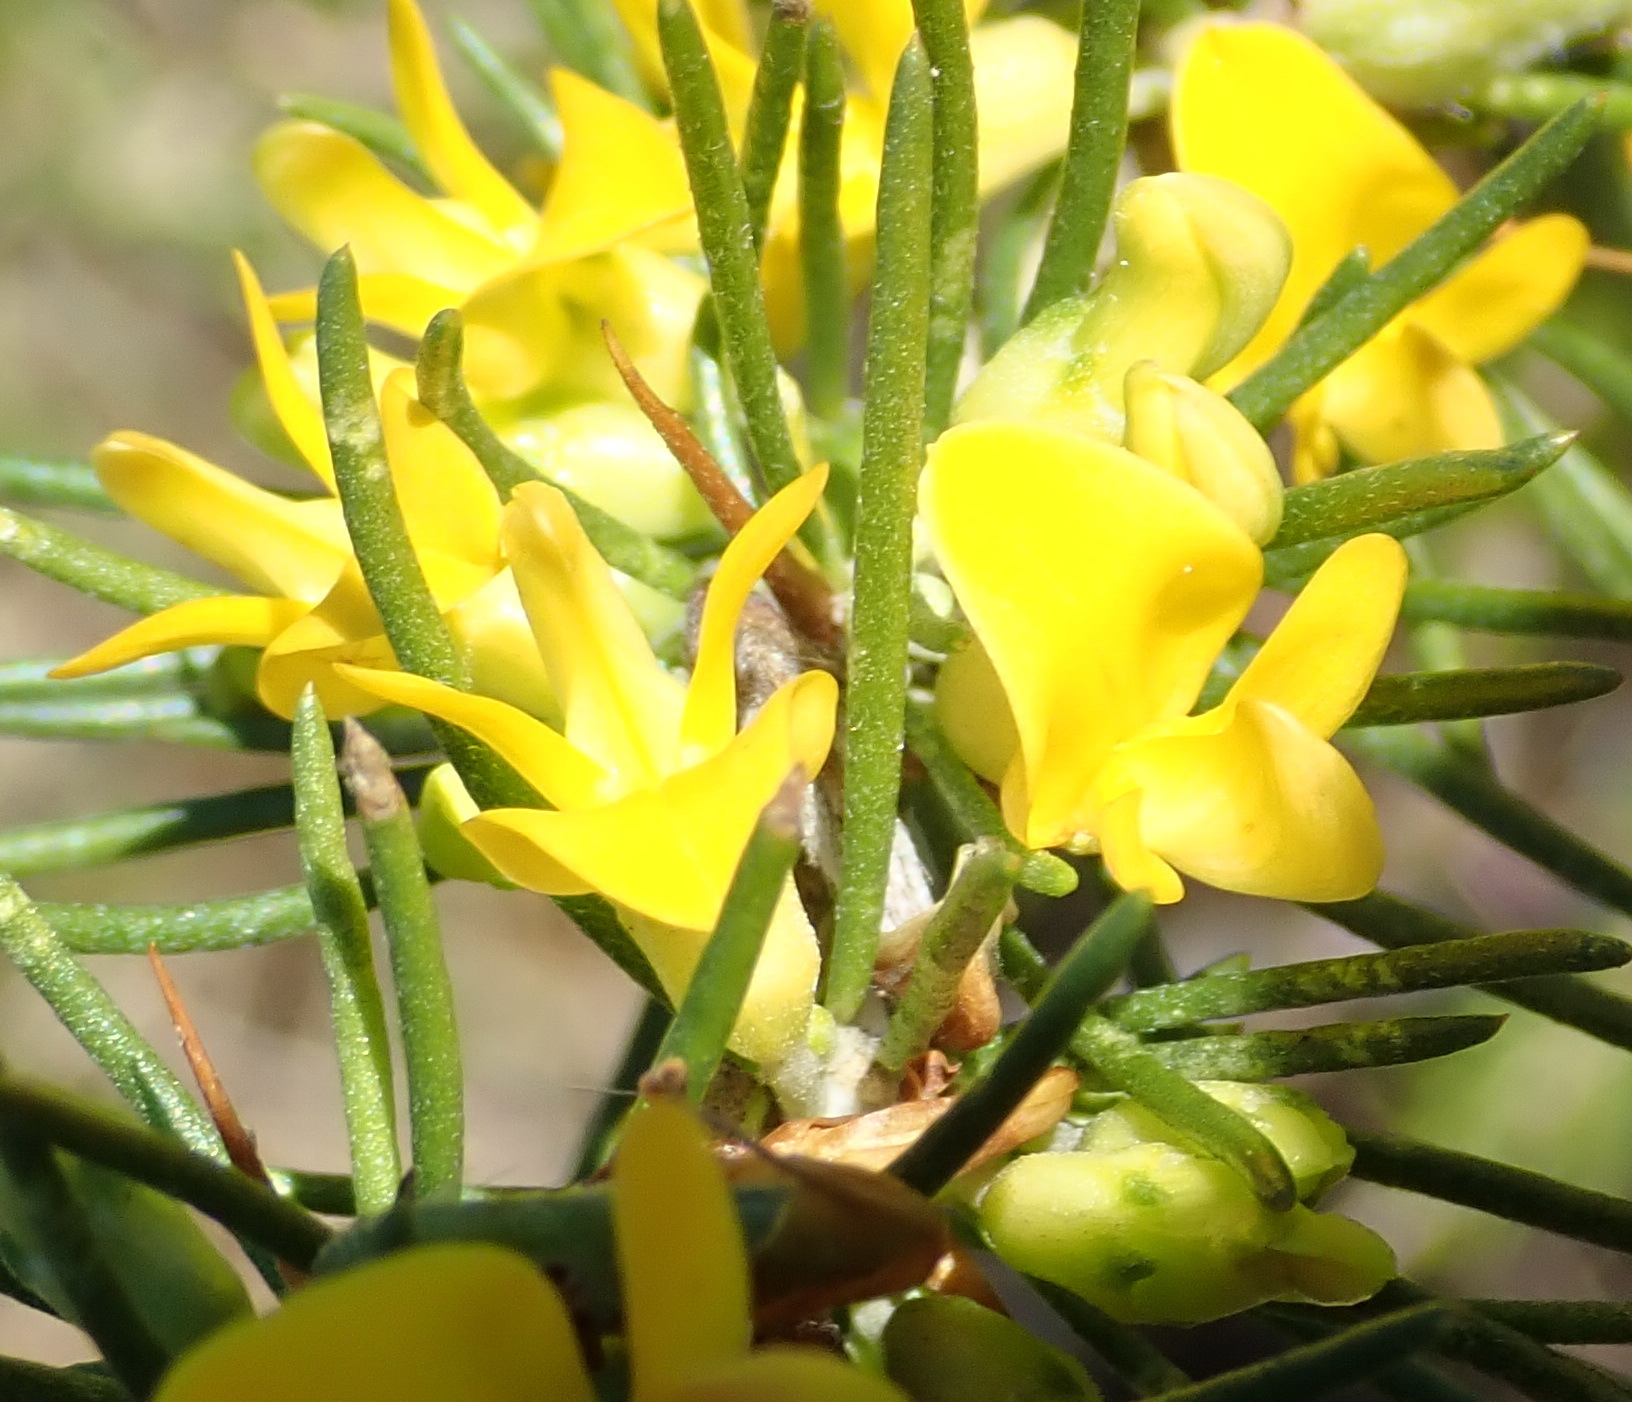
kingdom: Plantae
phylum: Tracheophyta
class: Magnoliopsida
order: Fabales
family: Fabaceae
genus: Aspalathus
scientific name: Aspalathus spinosa
